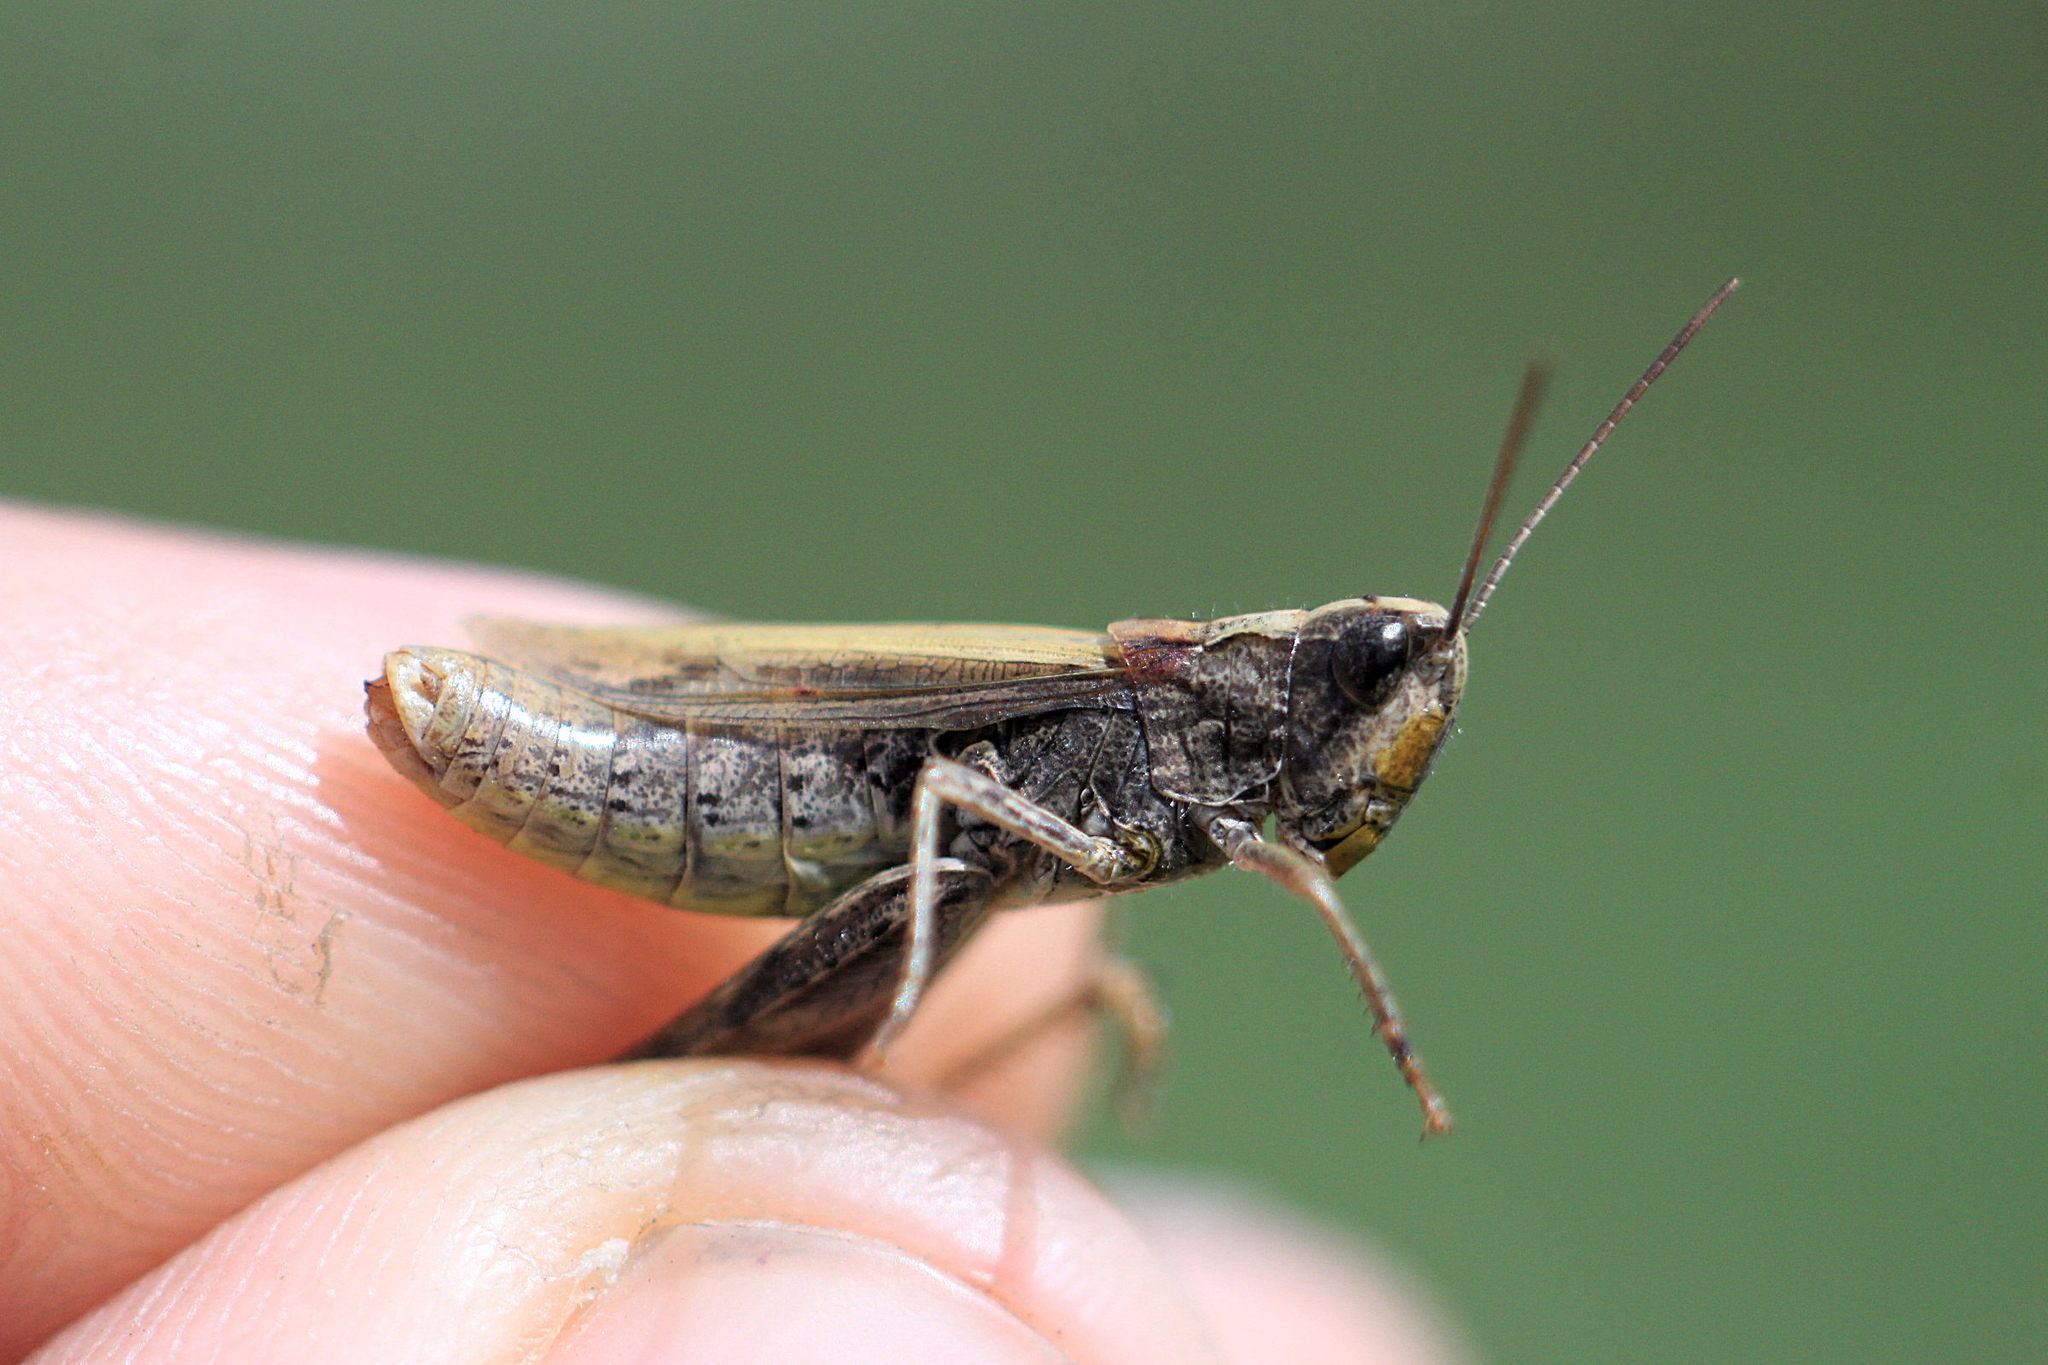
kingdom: Animalia
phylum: Arthropoda
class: Insecta
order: Orthoptera
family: Acrididae
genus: Chorthippus
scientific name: Chorthippus apricarius
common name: Upland field grasshopper
